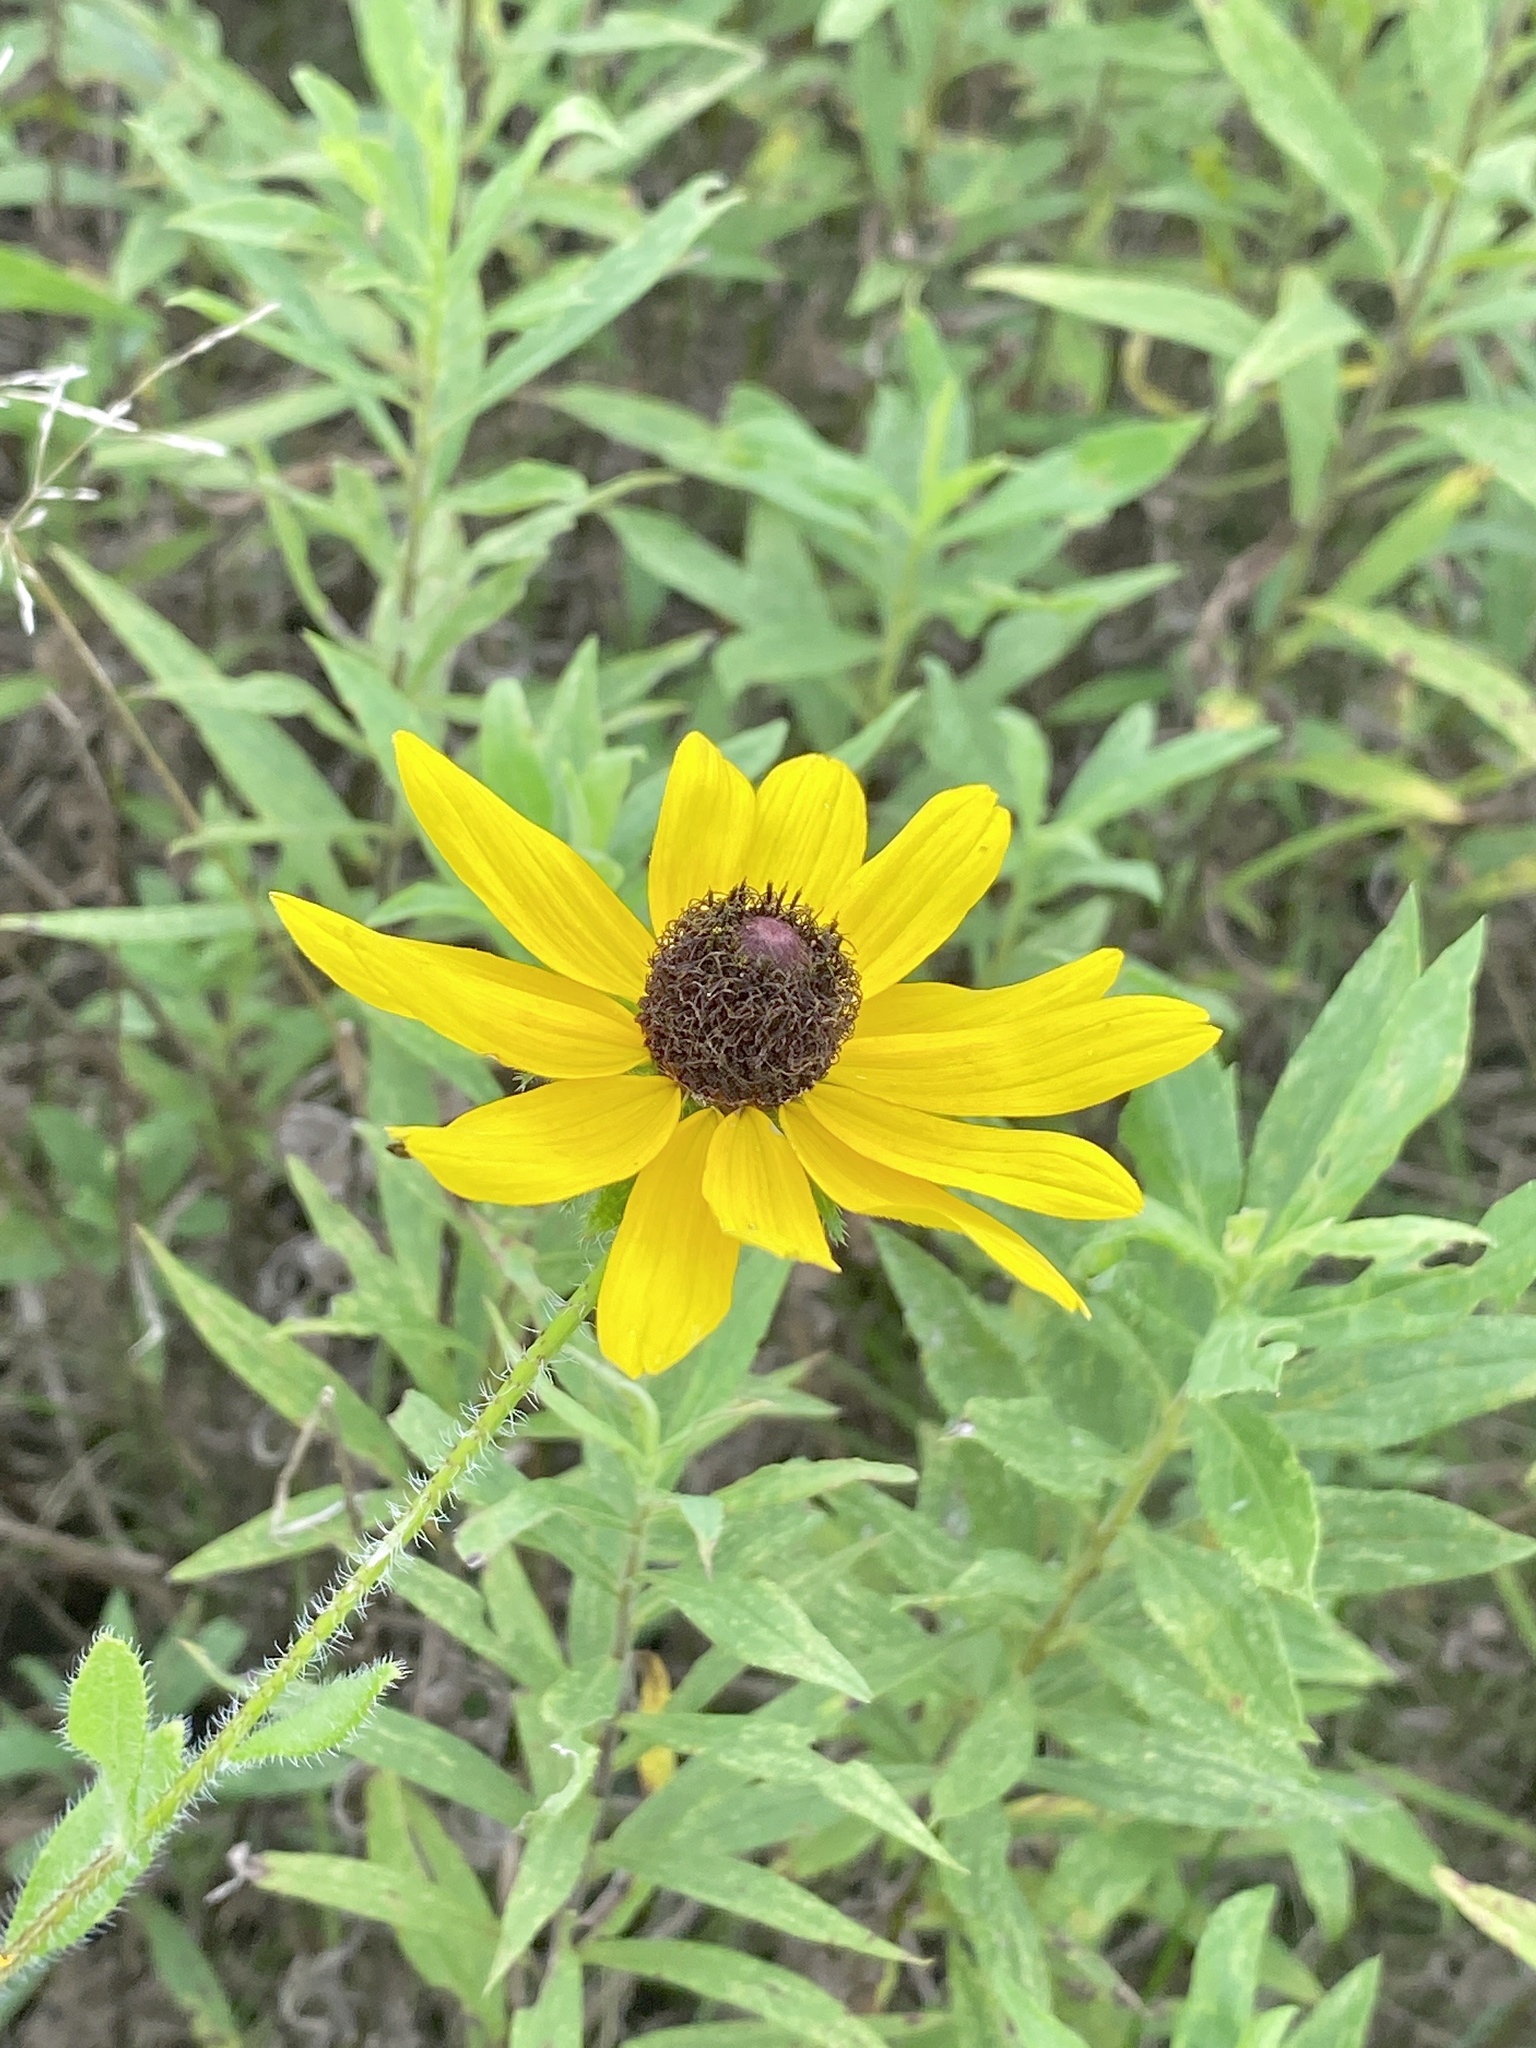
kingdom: Plantae
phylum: Tracheophyta
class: Magnoliopsida
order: Asterales
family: Asteraceae
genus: Rudbeckia
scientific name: Rudbeckia hirta
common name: Black-eyed-susan
